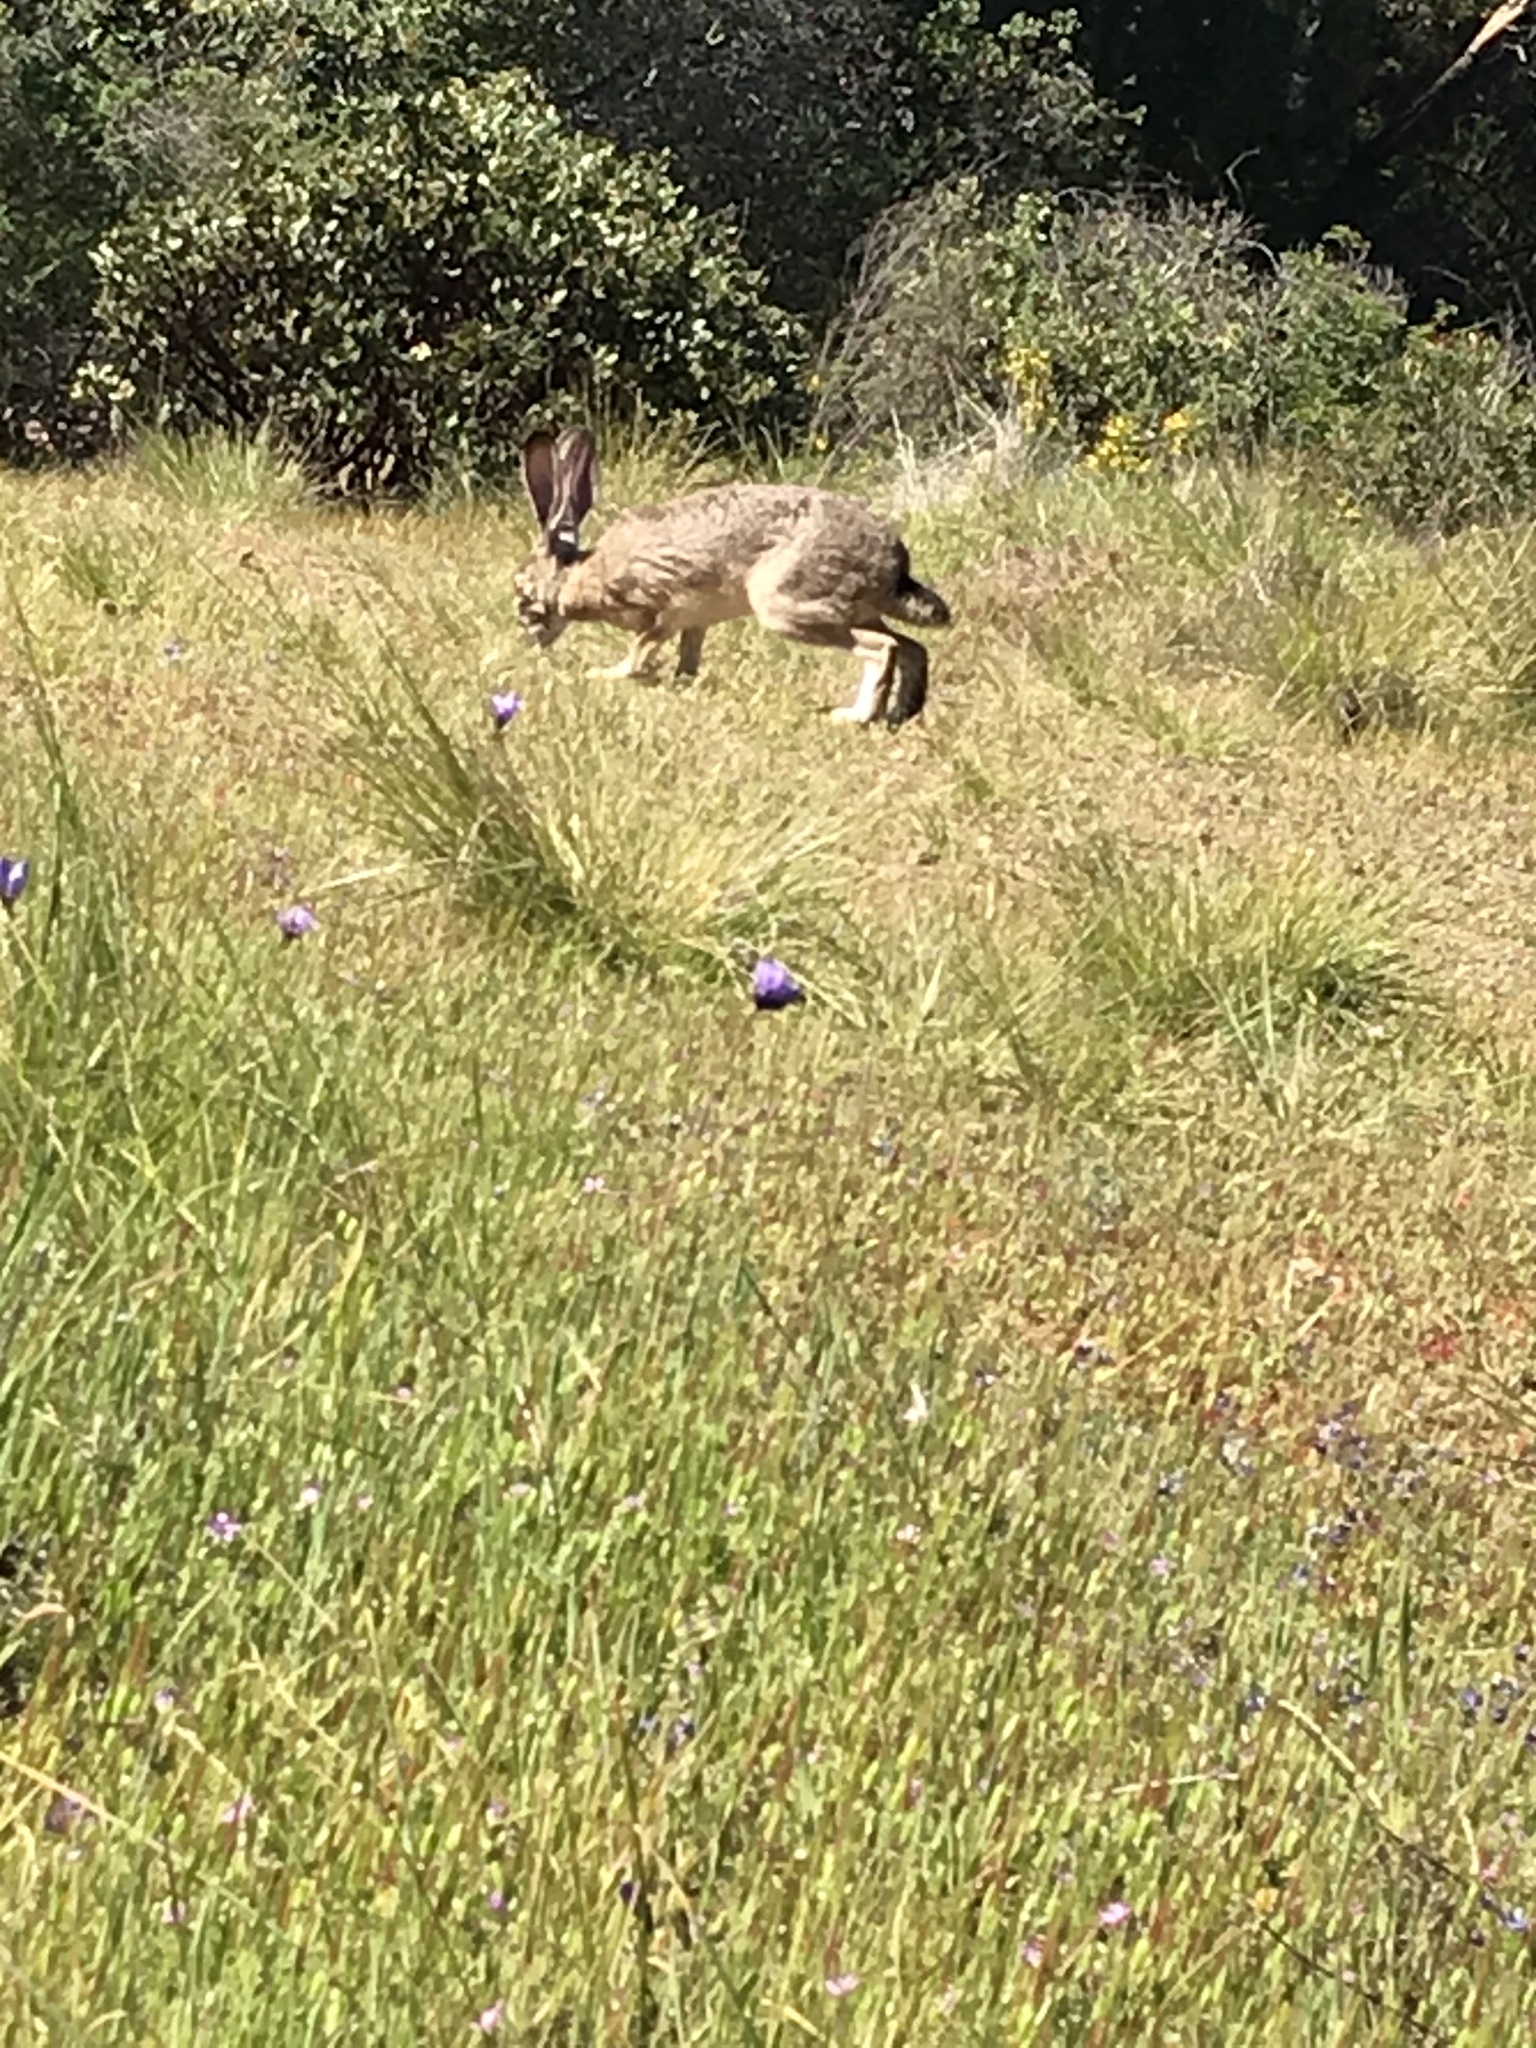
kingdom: Animalia
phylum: Chordata
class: Mammalia
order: Lagomorpha
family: Leporidae
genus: Lepus
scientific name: Lepus californicus
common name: Black-tailed jackrabbit
